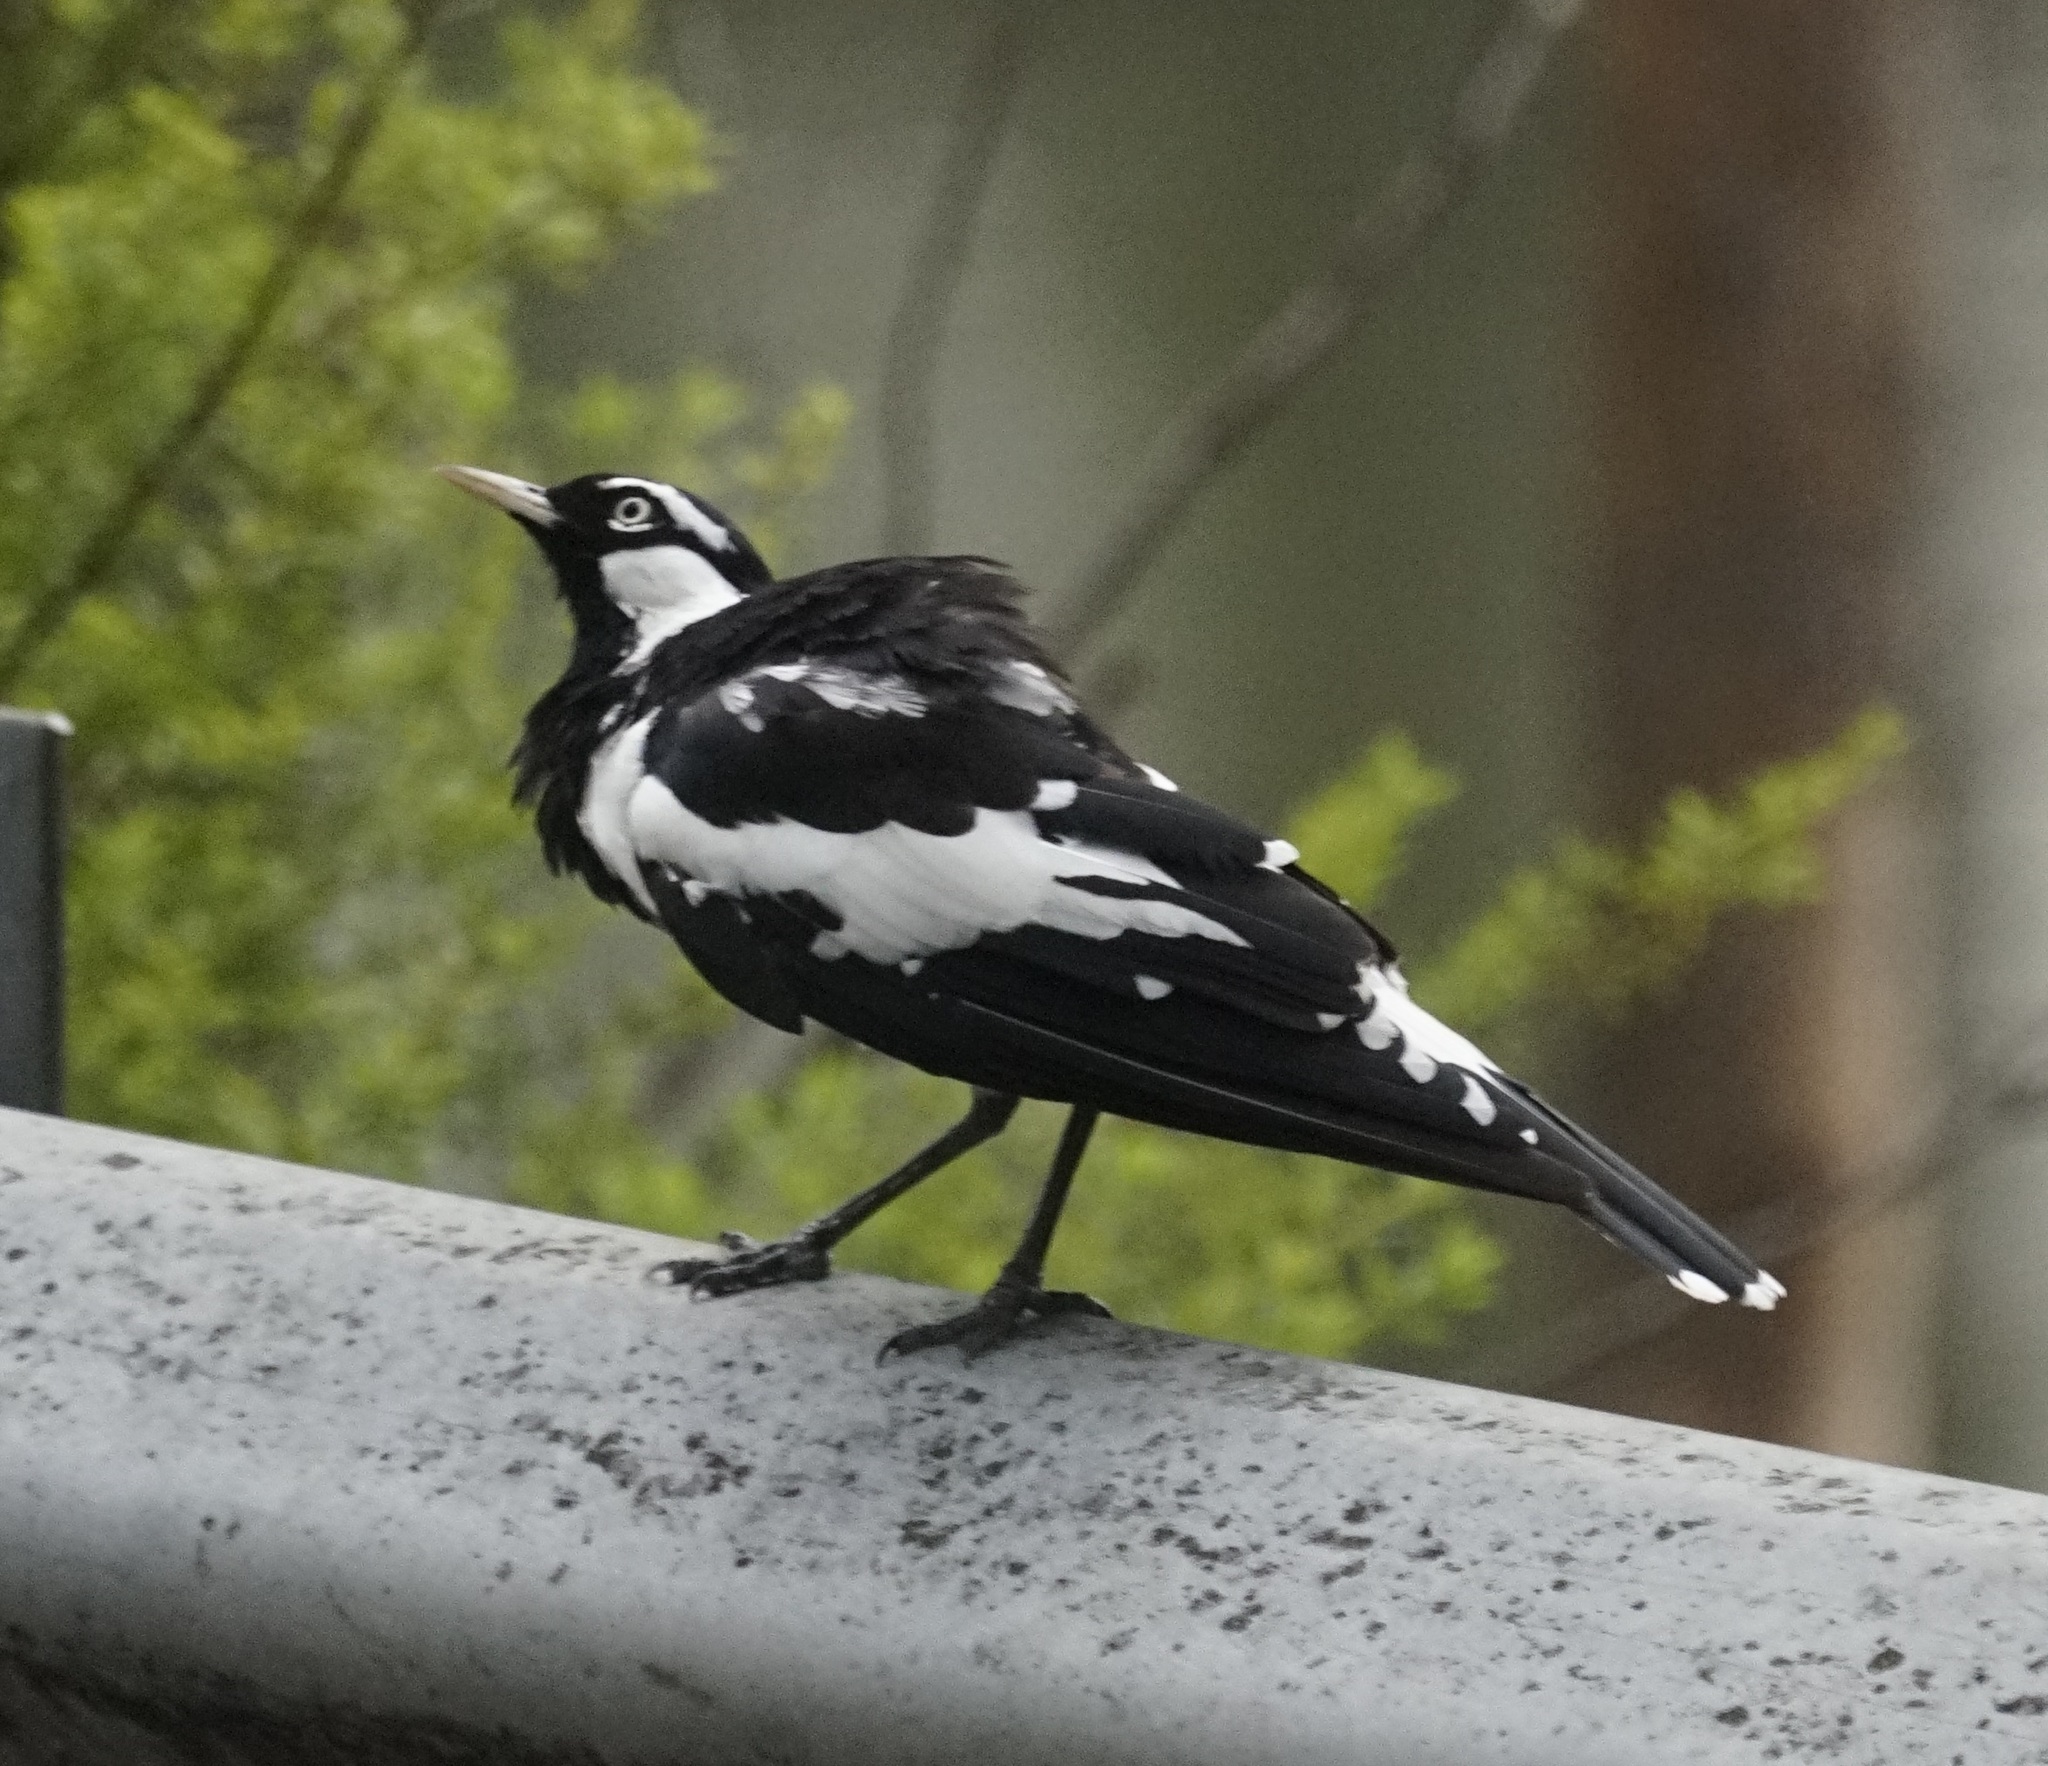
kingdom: Animalia
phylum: Chordata
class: Aves
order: Passeriformes
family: Monarchidae
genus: Grallina
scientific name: Grallina cyanoleuca
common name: Magpie-lark
